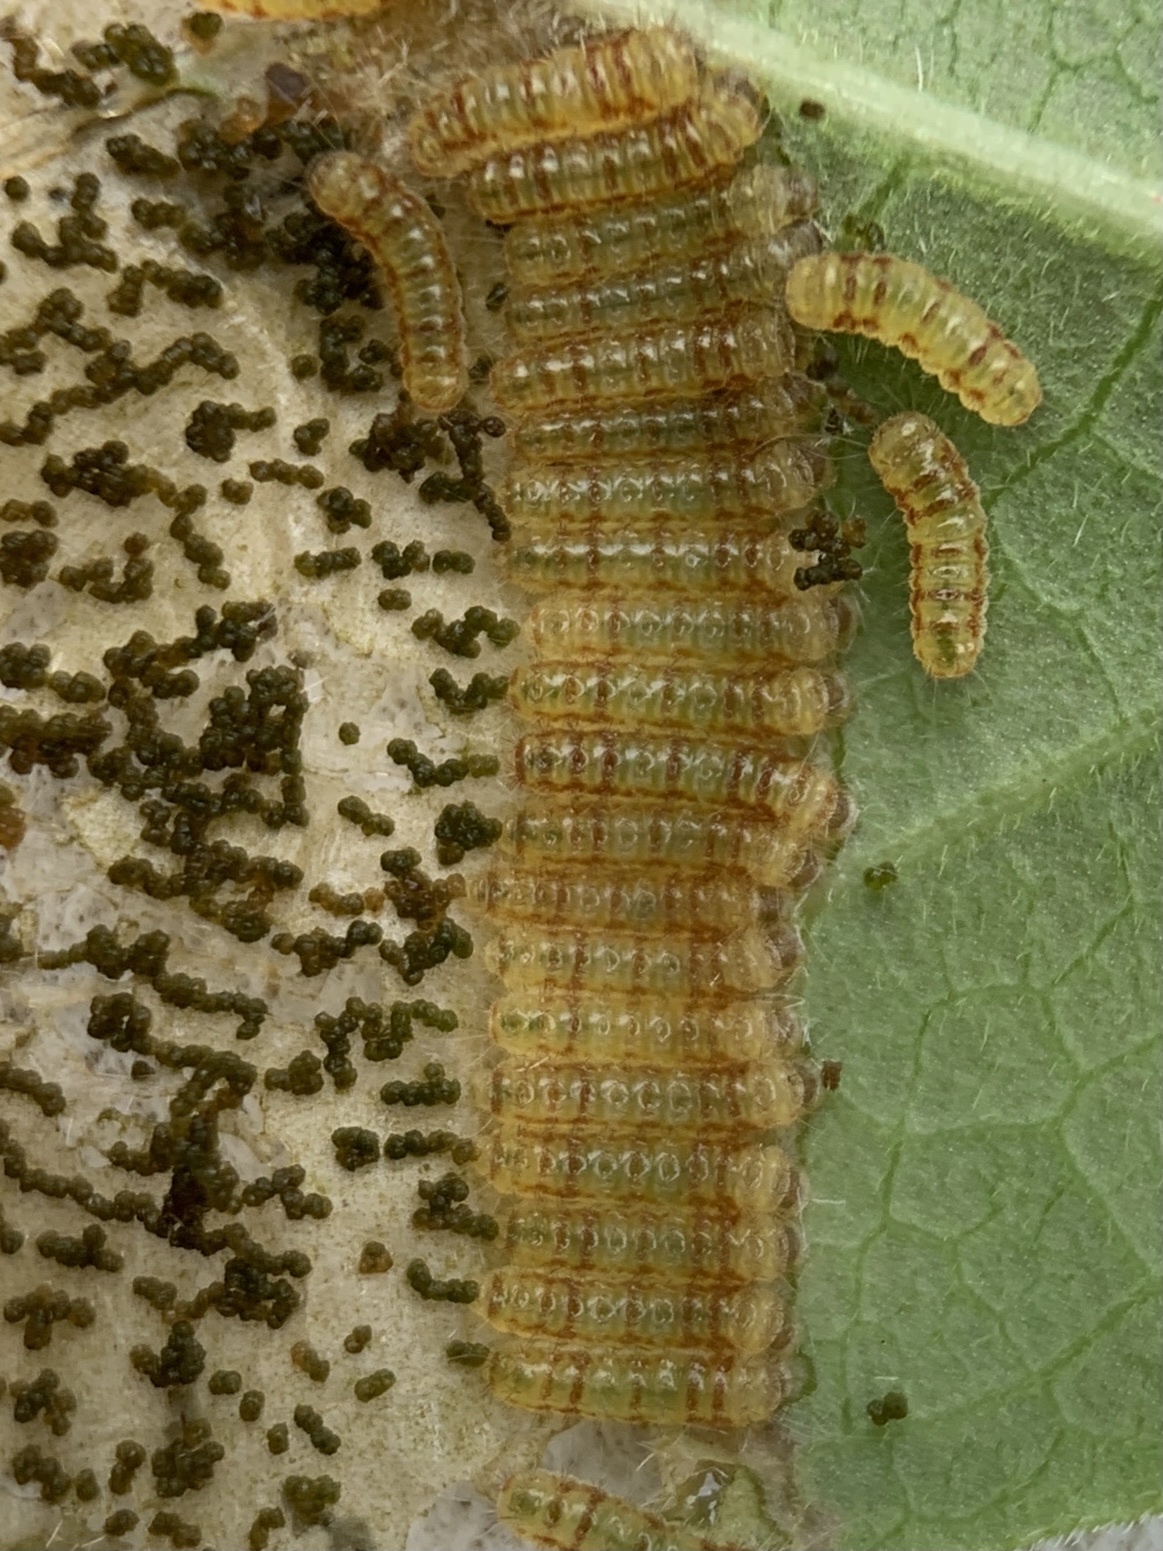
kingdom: Animalia
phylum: Arthropoda
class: Insecta
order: Lepidoptera
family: Zygaenidae
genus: Harrisina
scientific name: Harrisina americana
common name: Grapeleaf skeletonizer moth
